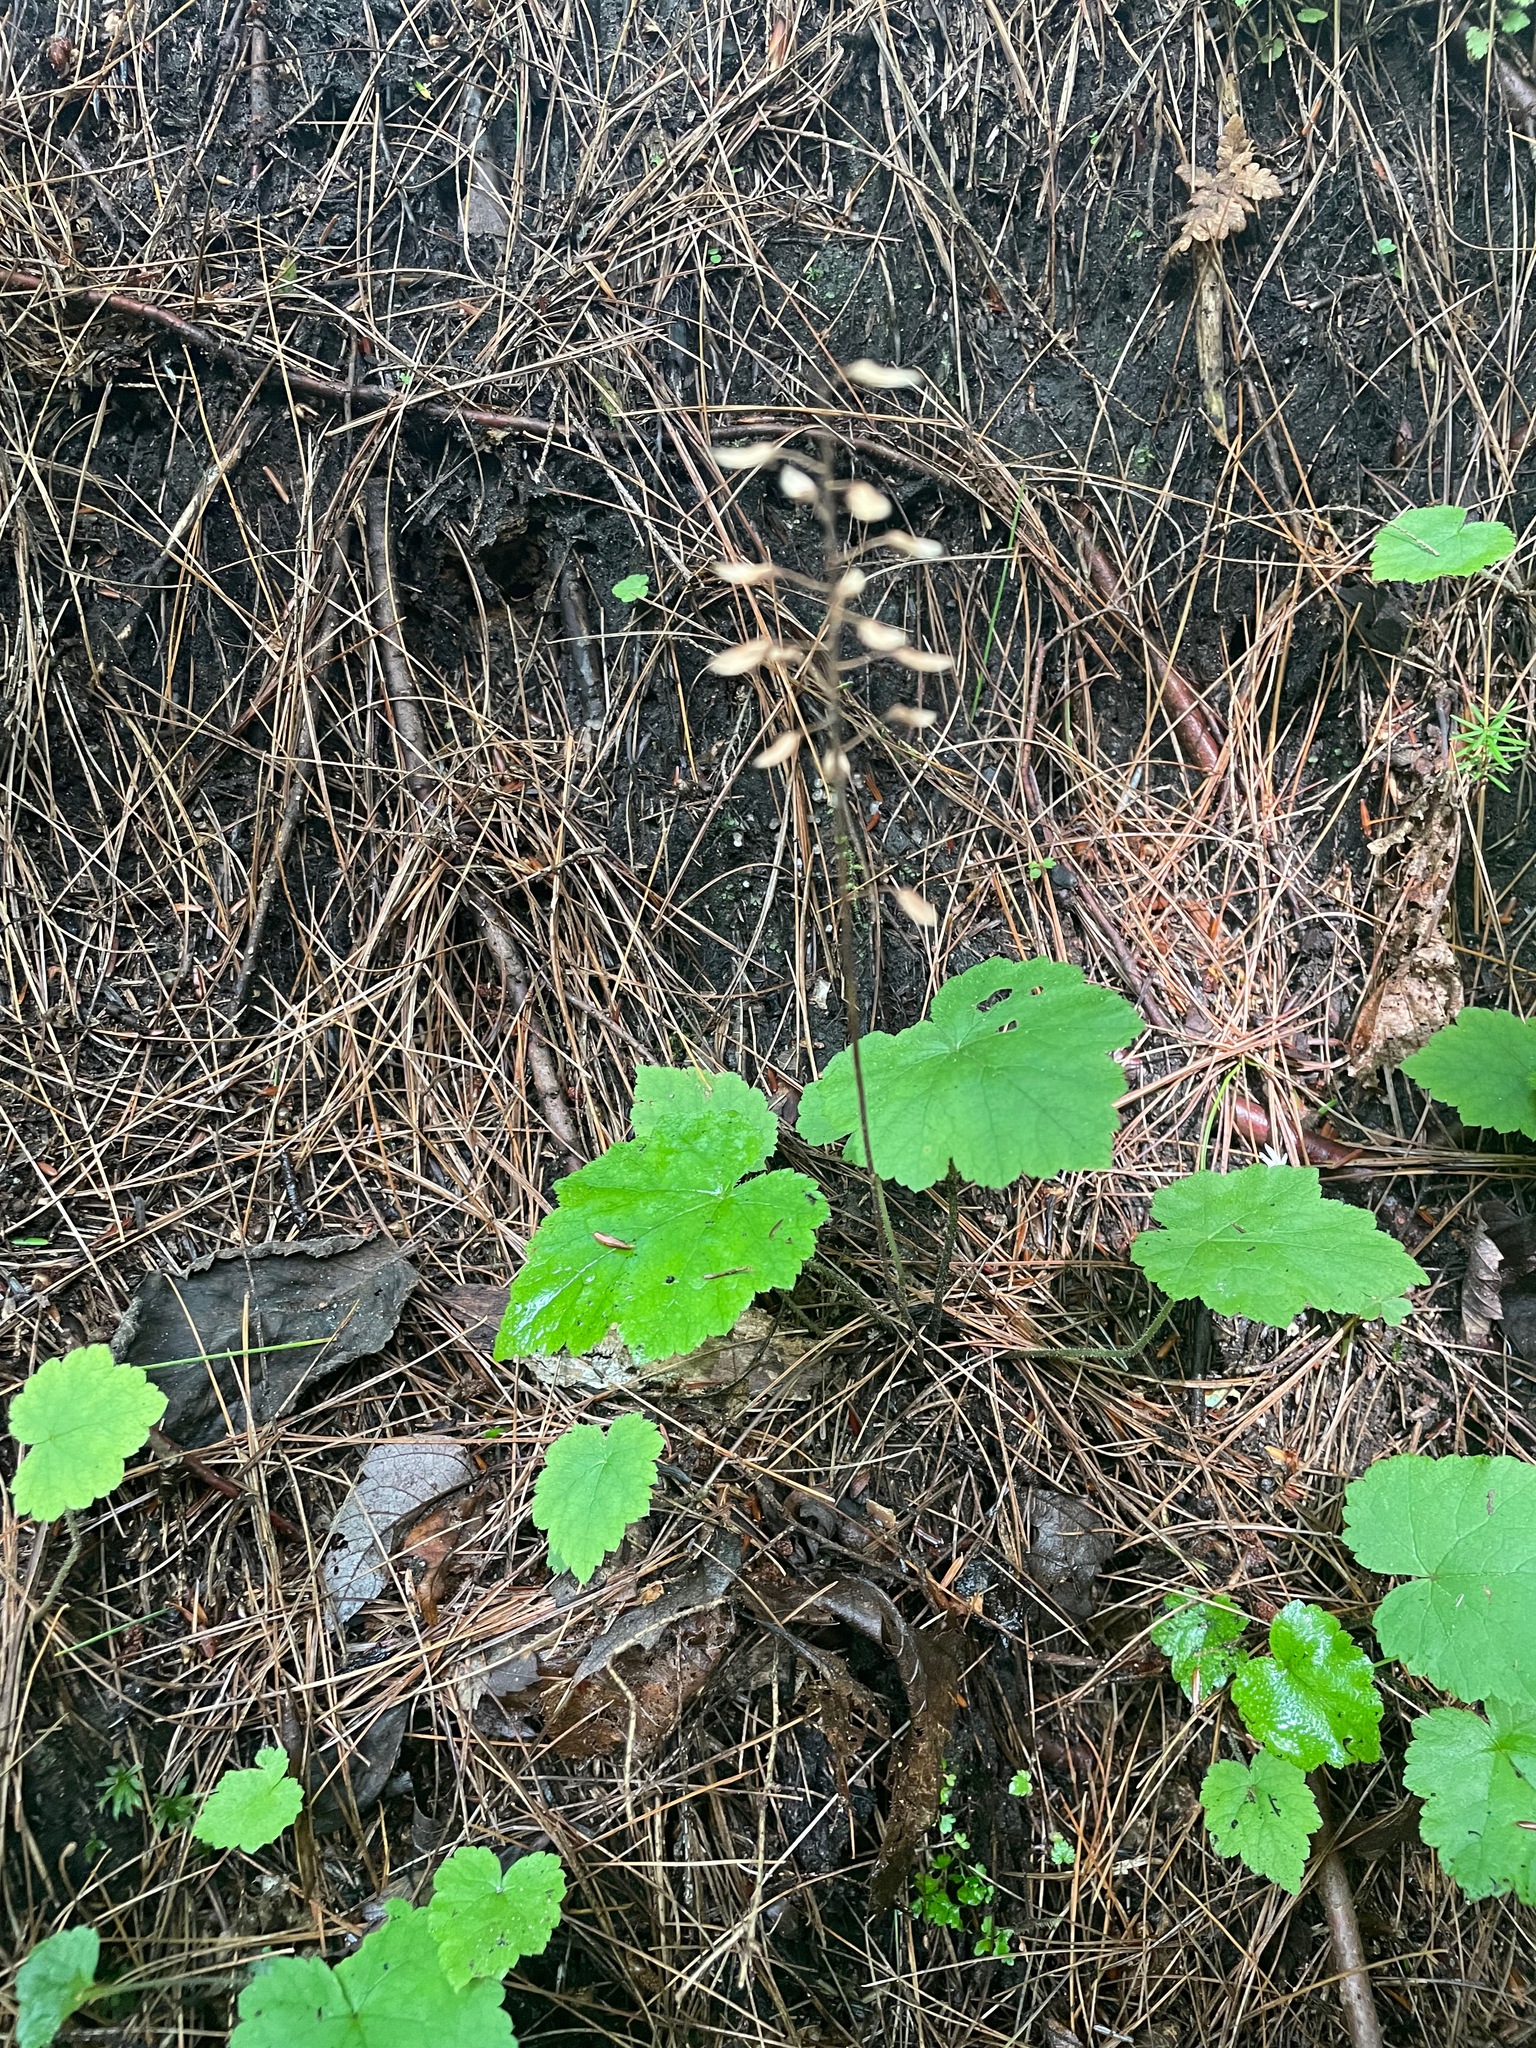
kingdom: Plantae
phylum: Tracheophyta
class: Magnoliopsida
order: Saxifragales
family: Saxifragaceae
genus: Tiarella
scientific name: Tiarella stolonifera
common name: Stoloniferous foamflower
